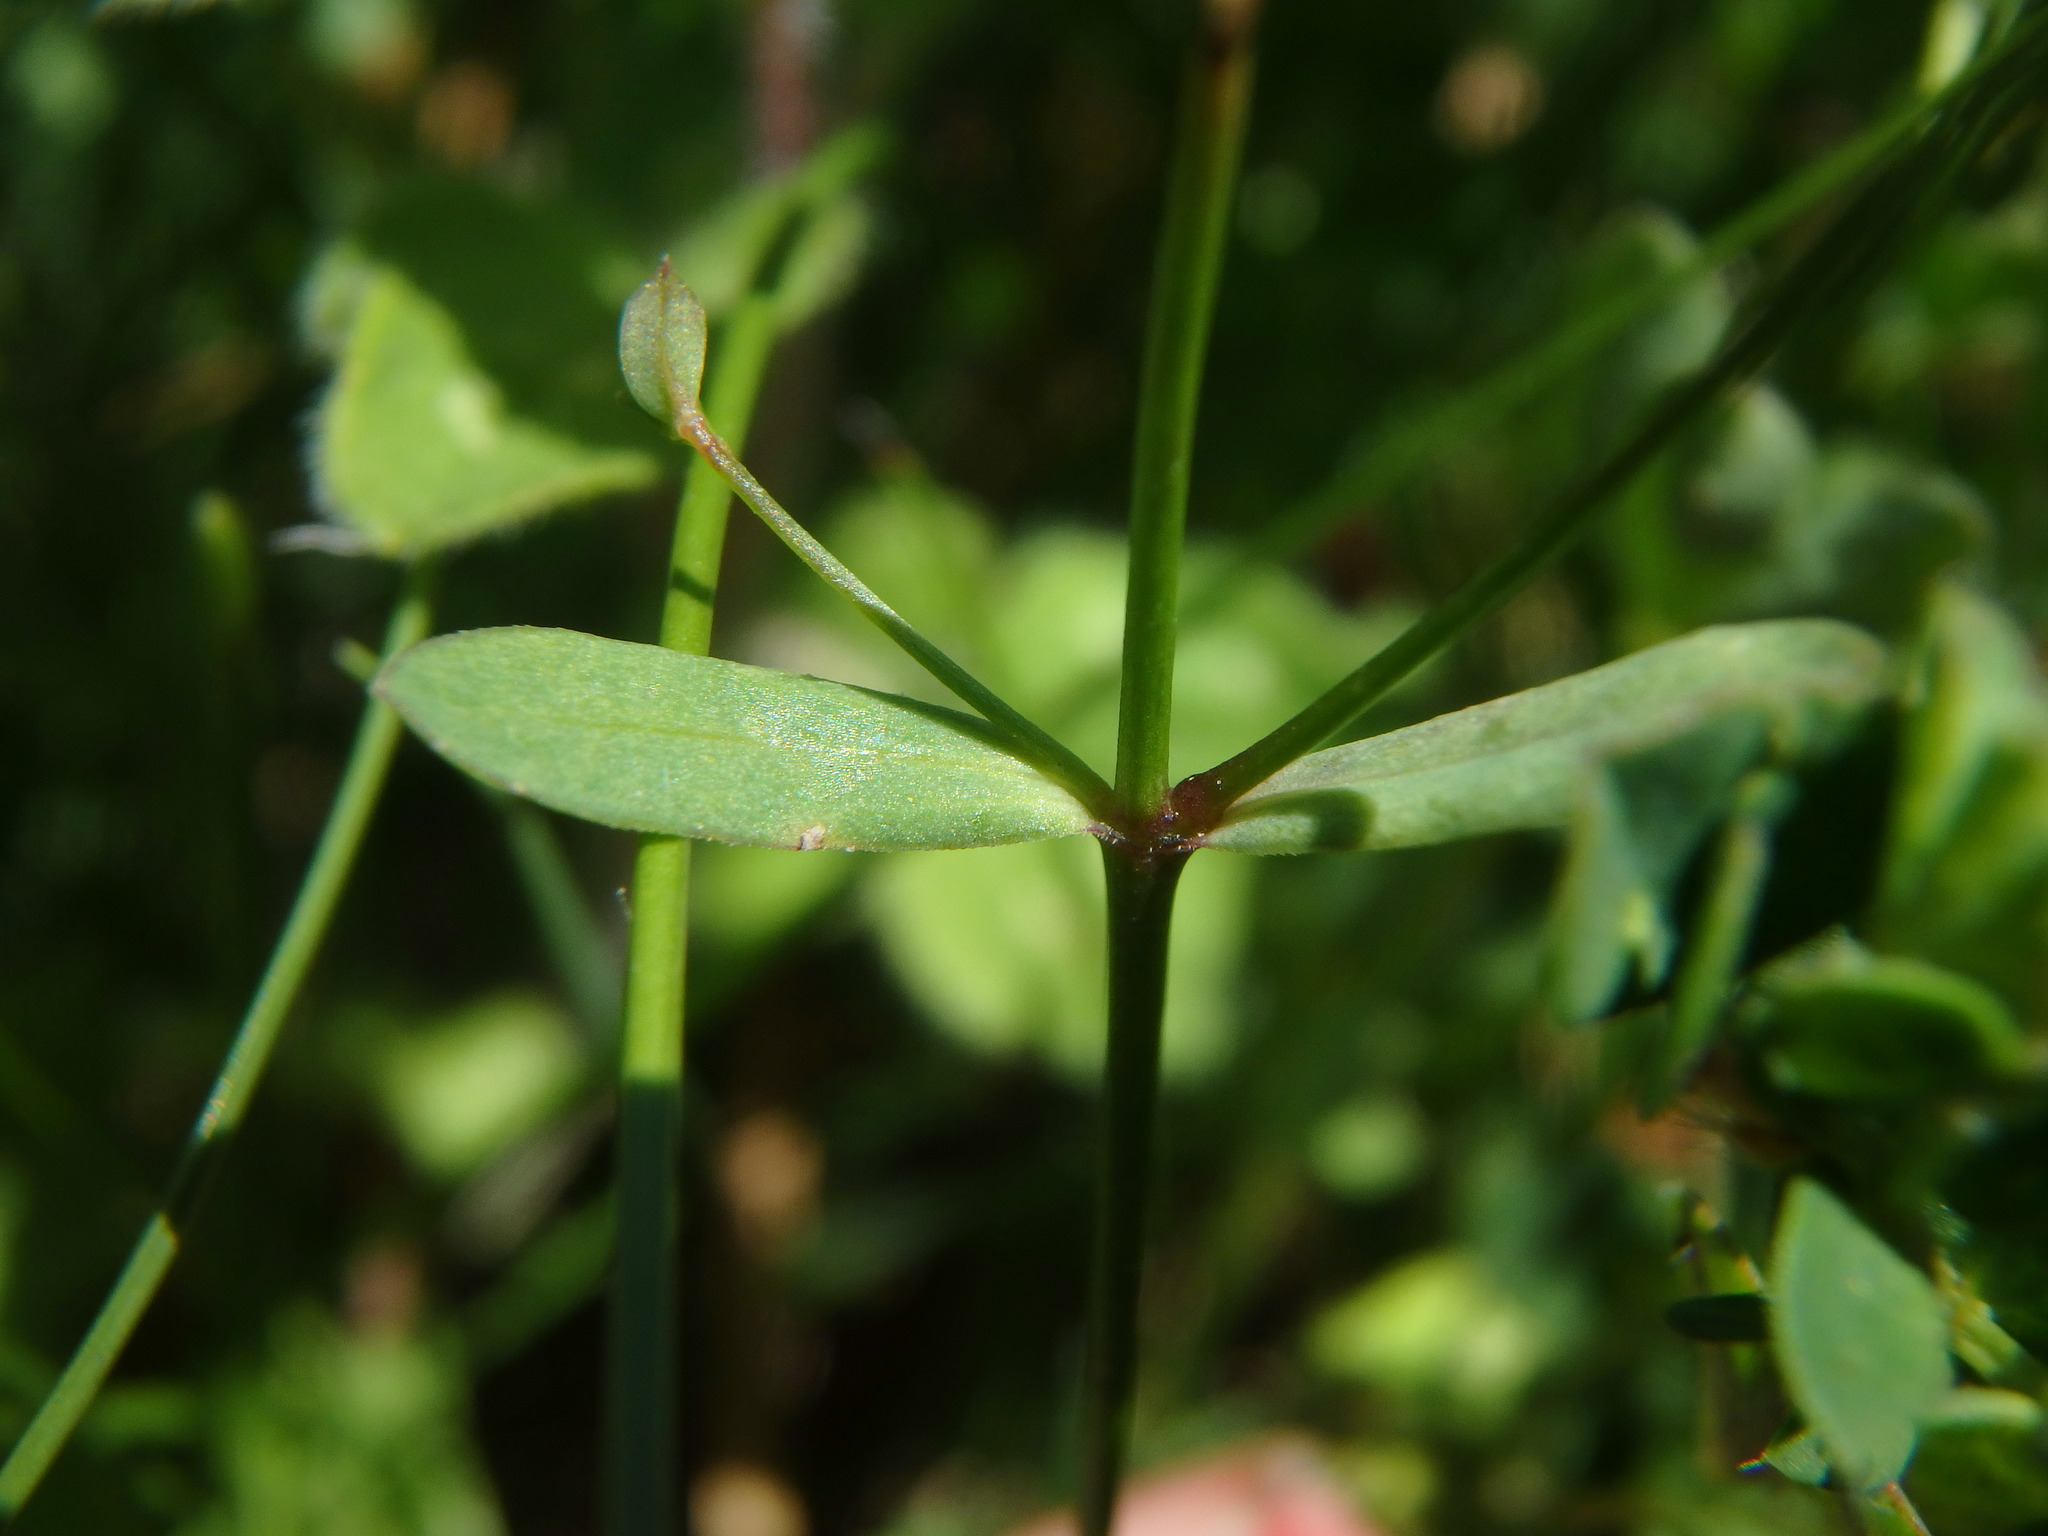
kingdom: Plantae
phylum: Tracheophyta
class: Magnoliopsida
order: Malpighiales
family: Linaceae
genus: Linum
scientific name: Linum catharticum
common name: Fairy flax
